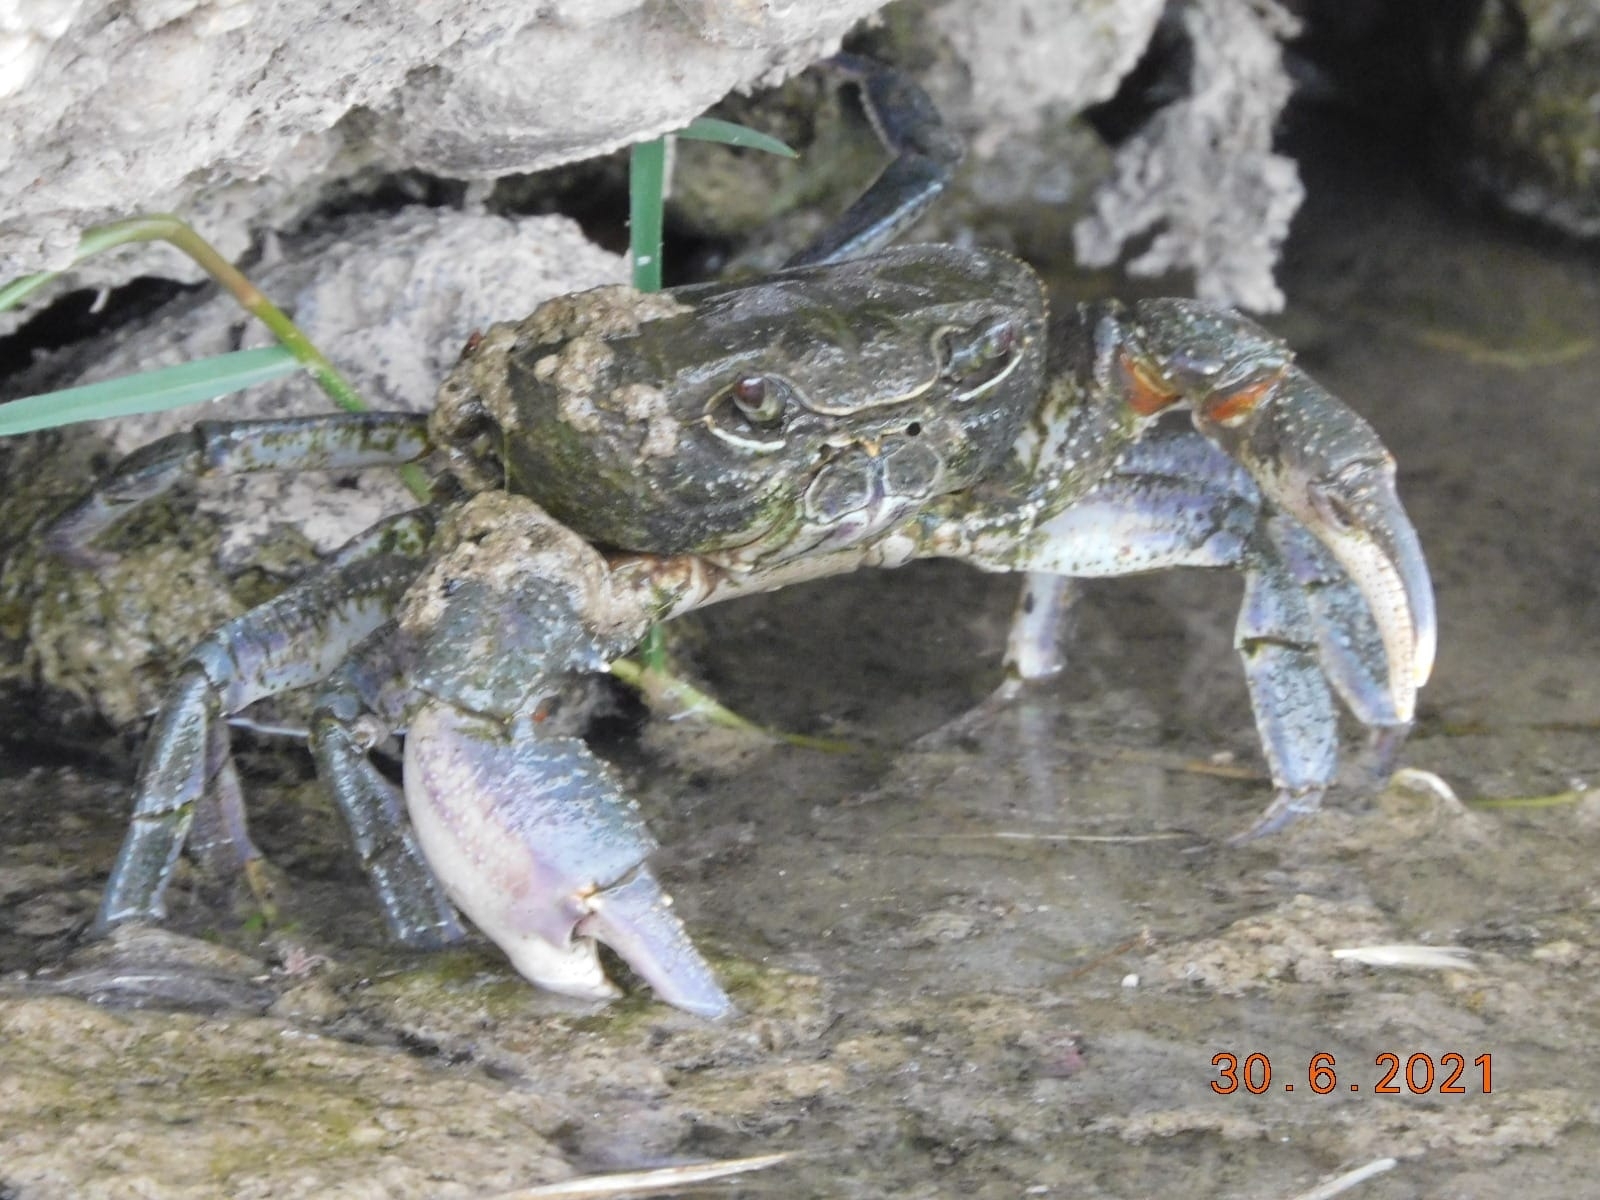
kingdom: Animalia
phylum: Arthropoda
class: Malacostraca
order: Decapoda
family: Potamidae
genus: Potamon
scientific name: Potamon fluviatile
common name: Italian freshwater crab
